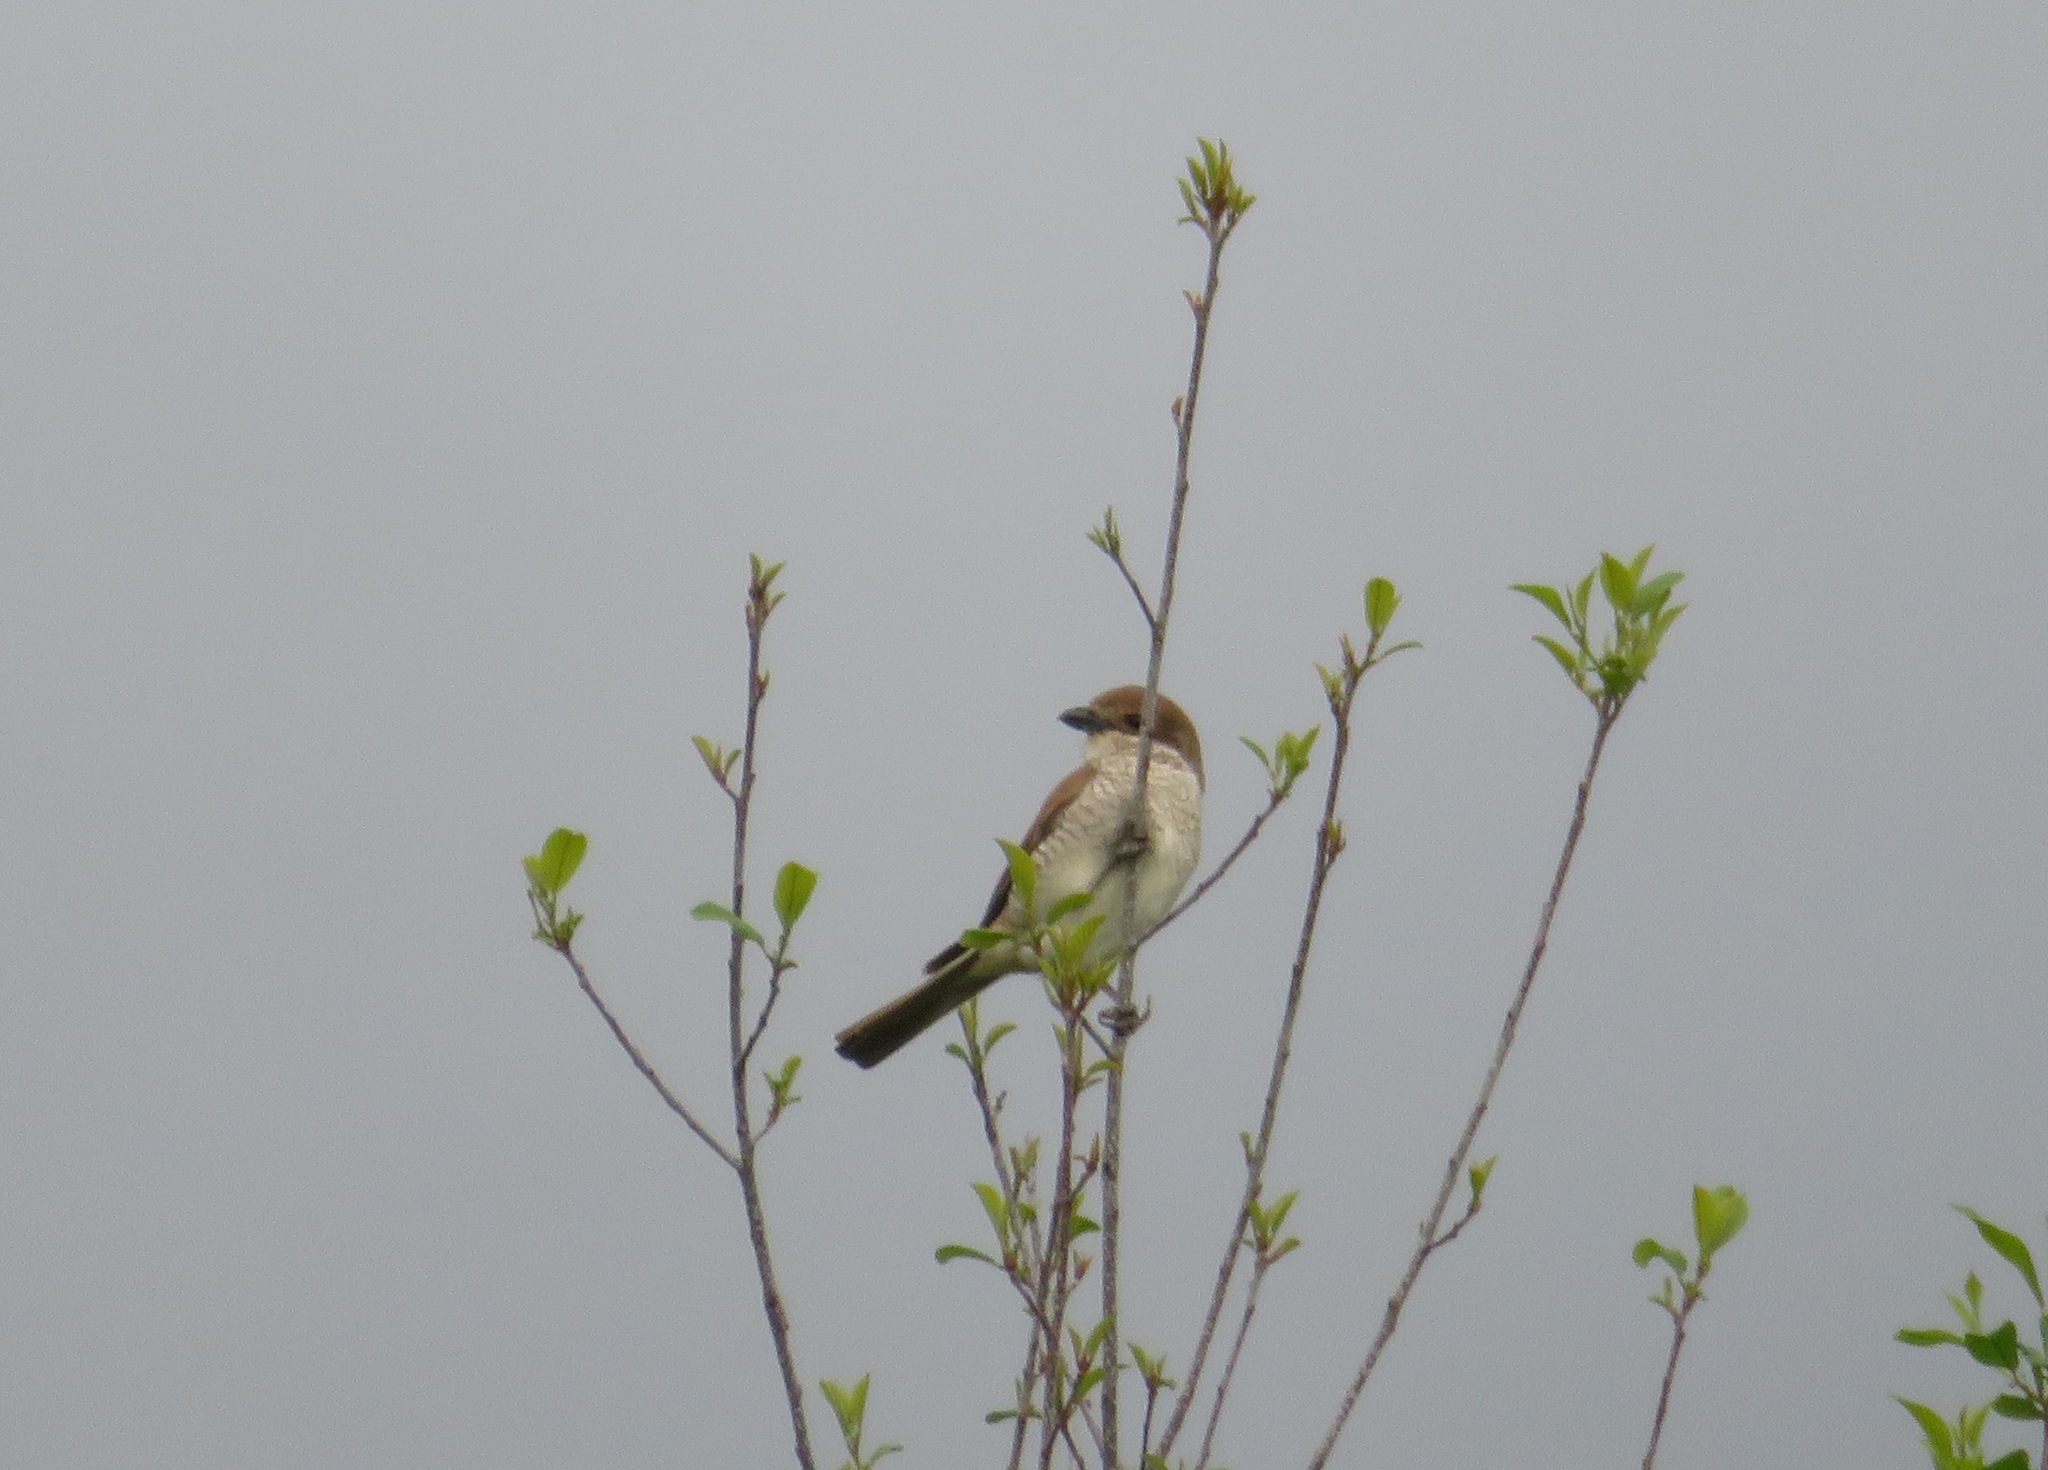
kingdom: Animalia
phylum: Chordata
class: Aves
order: Passeriformes
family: Laniidae
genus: Lanius
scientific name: Lanius collurio
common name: Red-backed shrike
